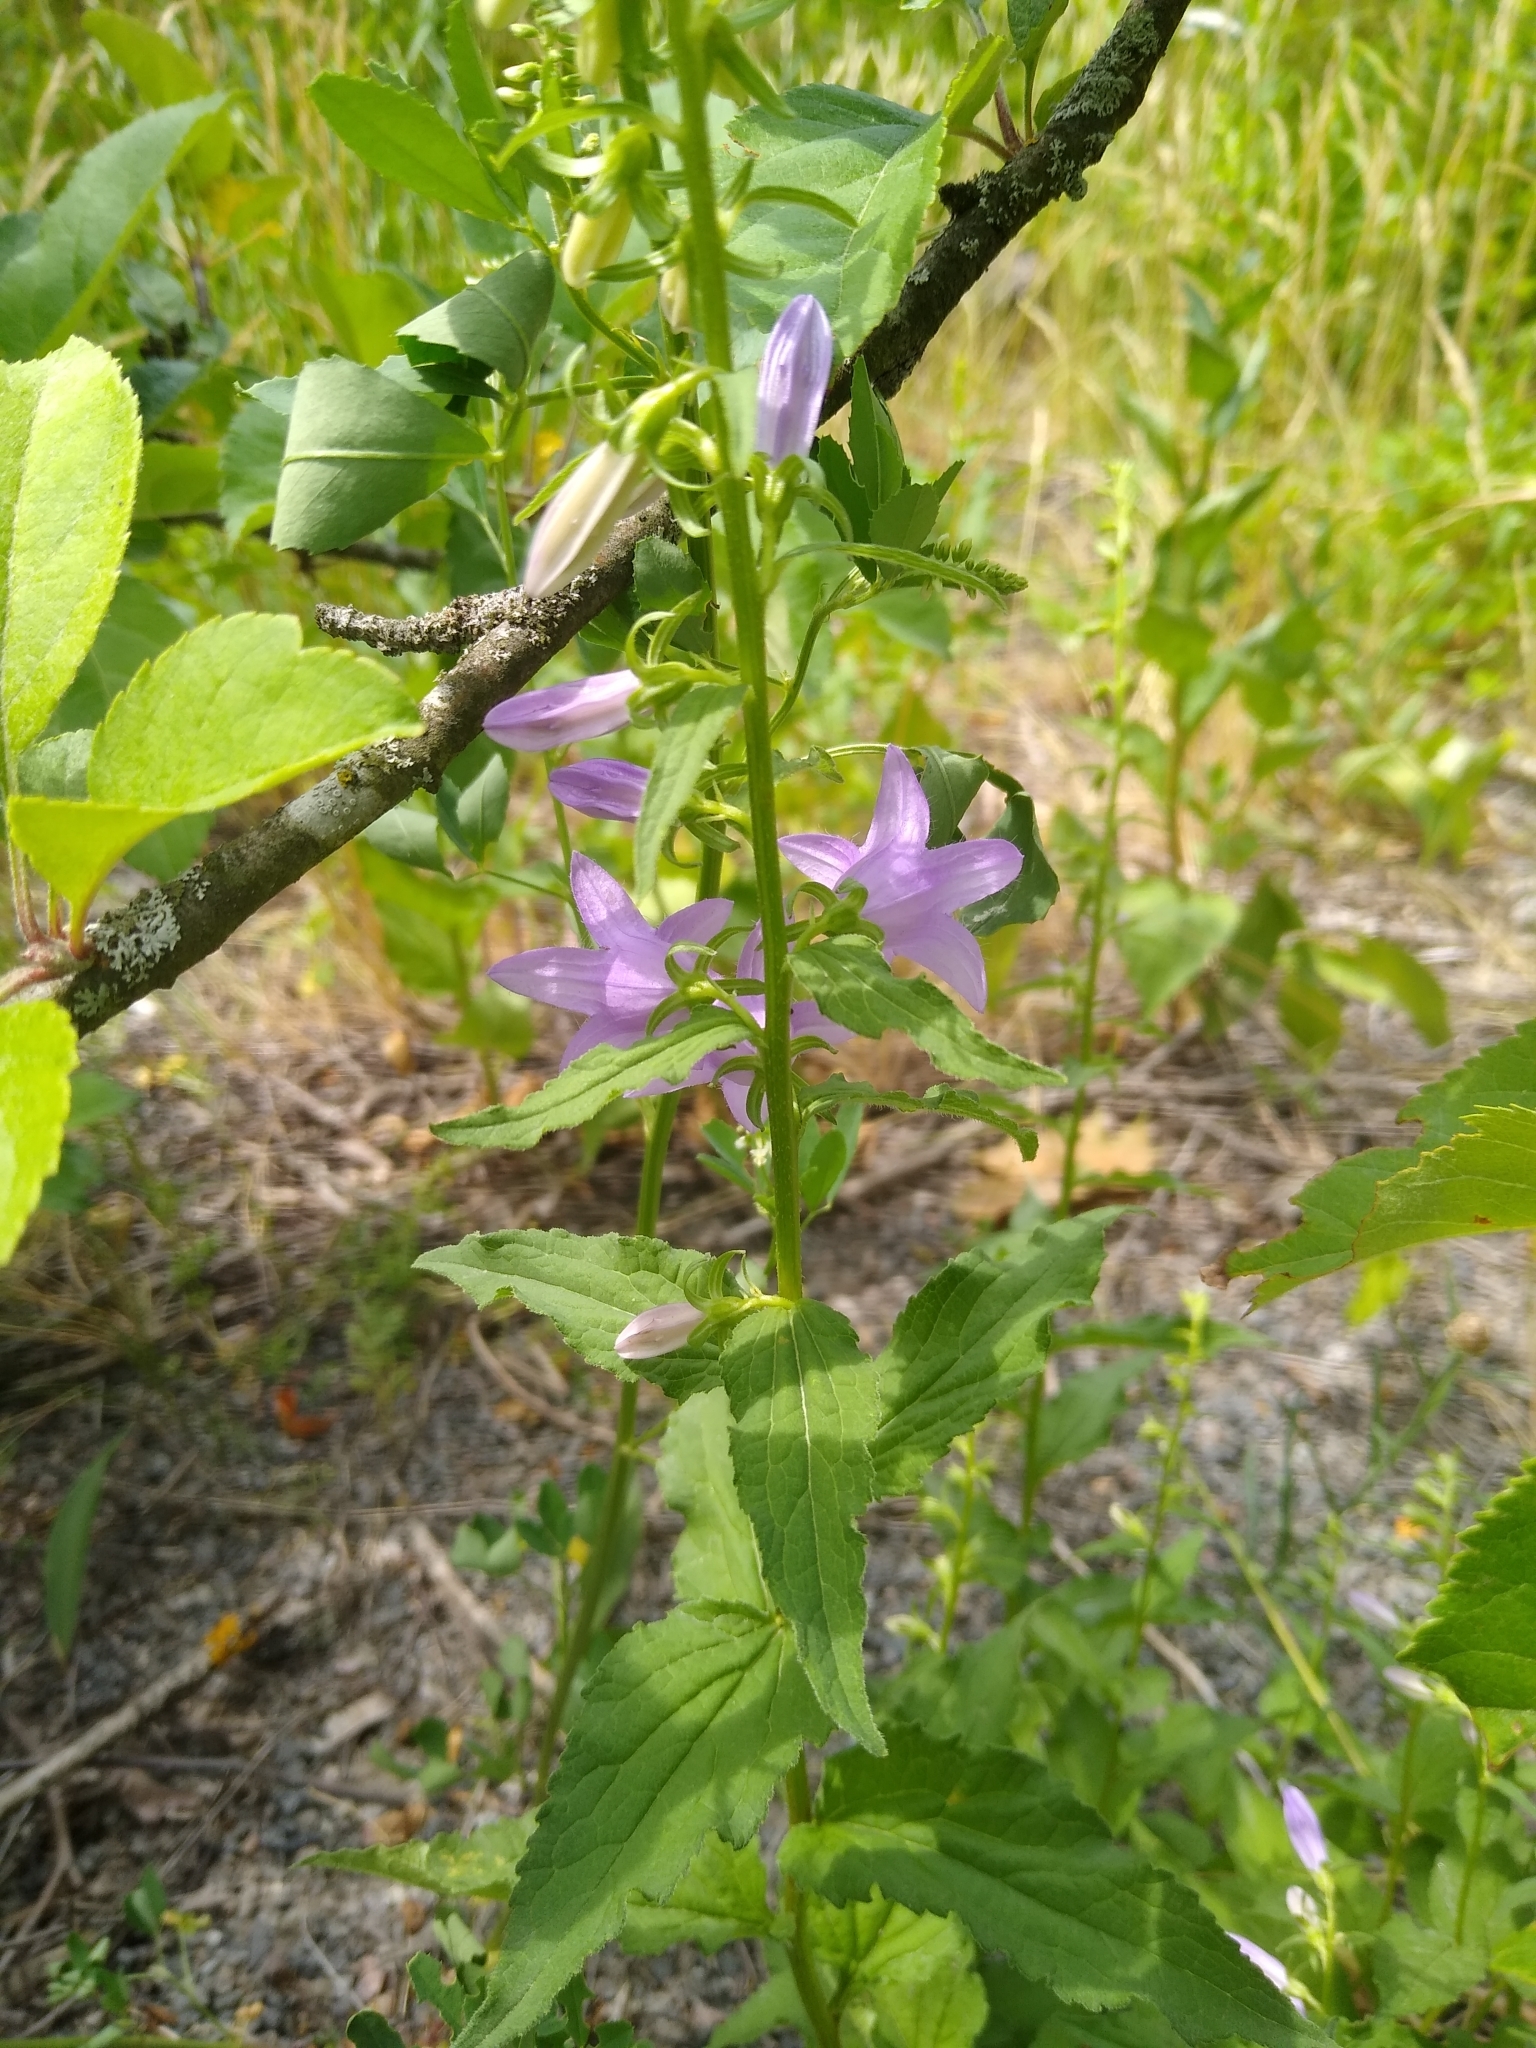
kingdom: Plantae
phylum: Tracheophyta
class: Magnoliopsida
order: Asterales
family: Campanulaceae
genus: Campanula
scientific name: Campanula rapunculoides
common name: Creeping bellflower
